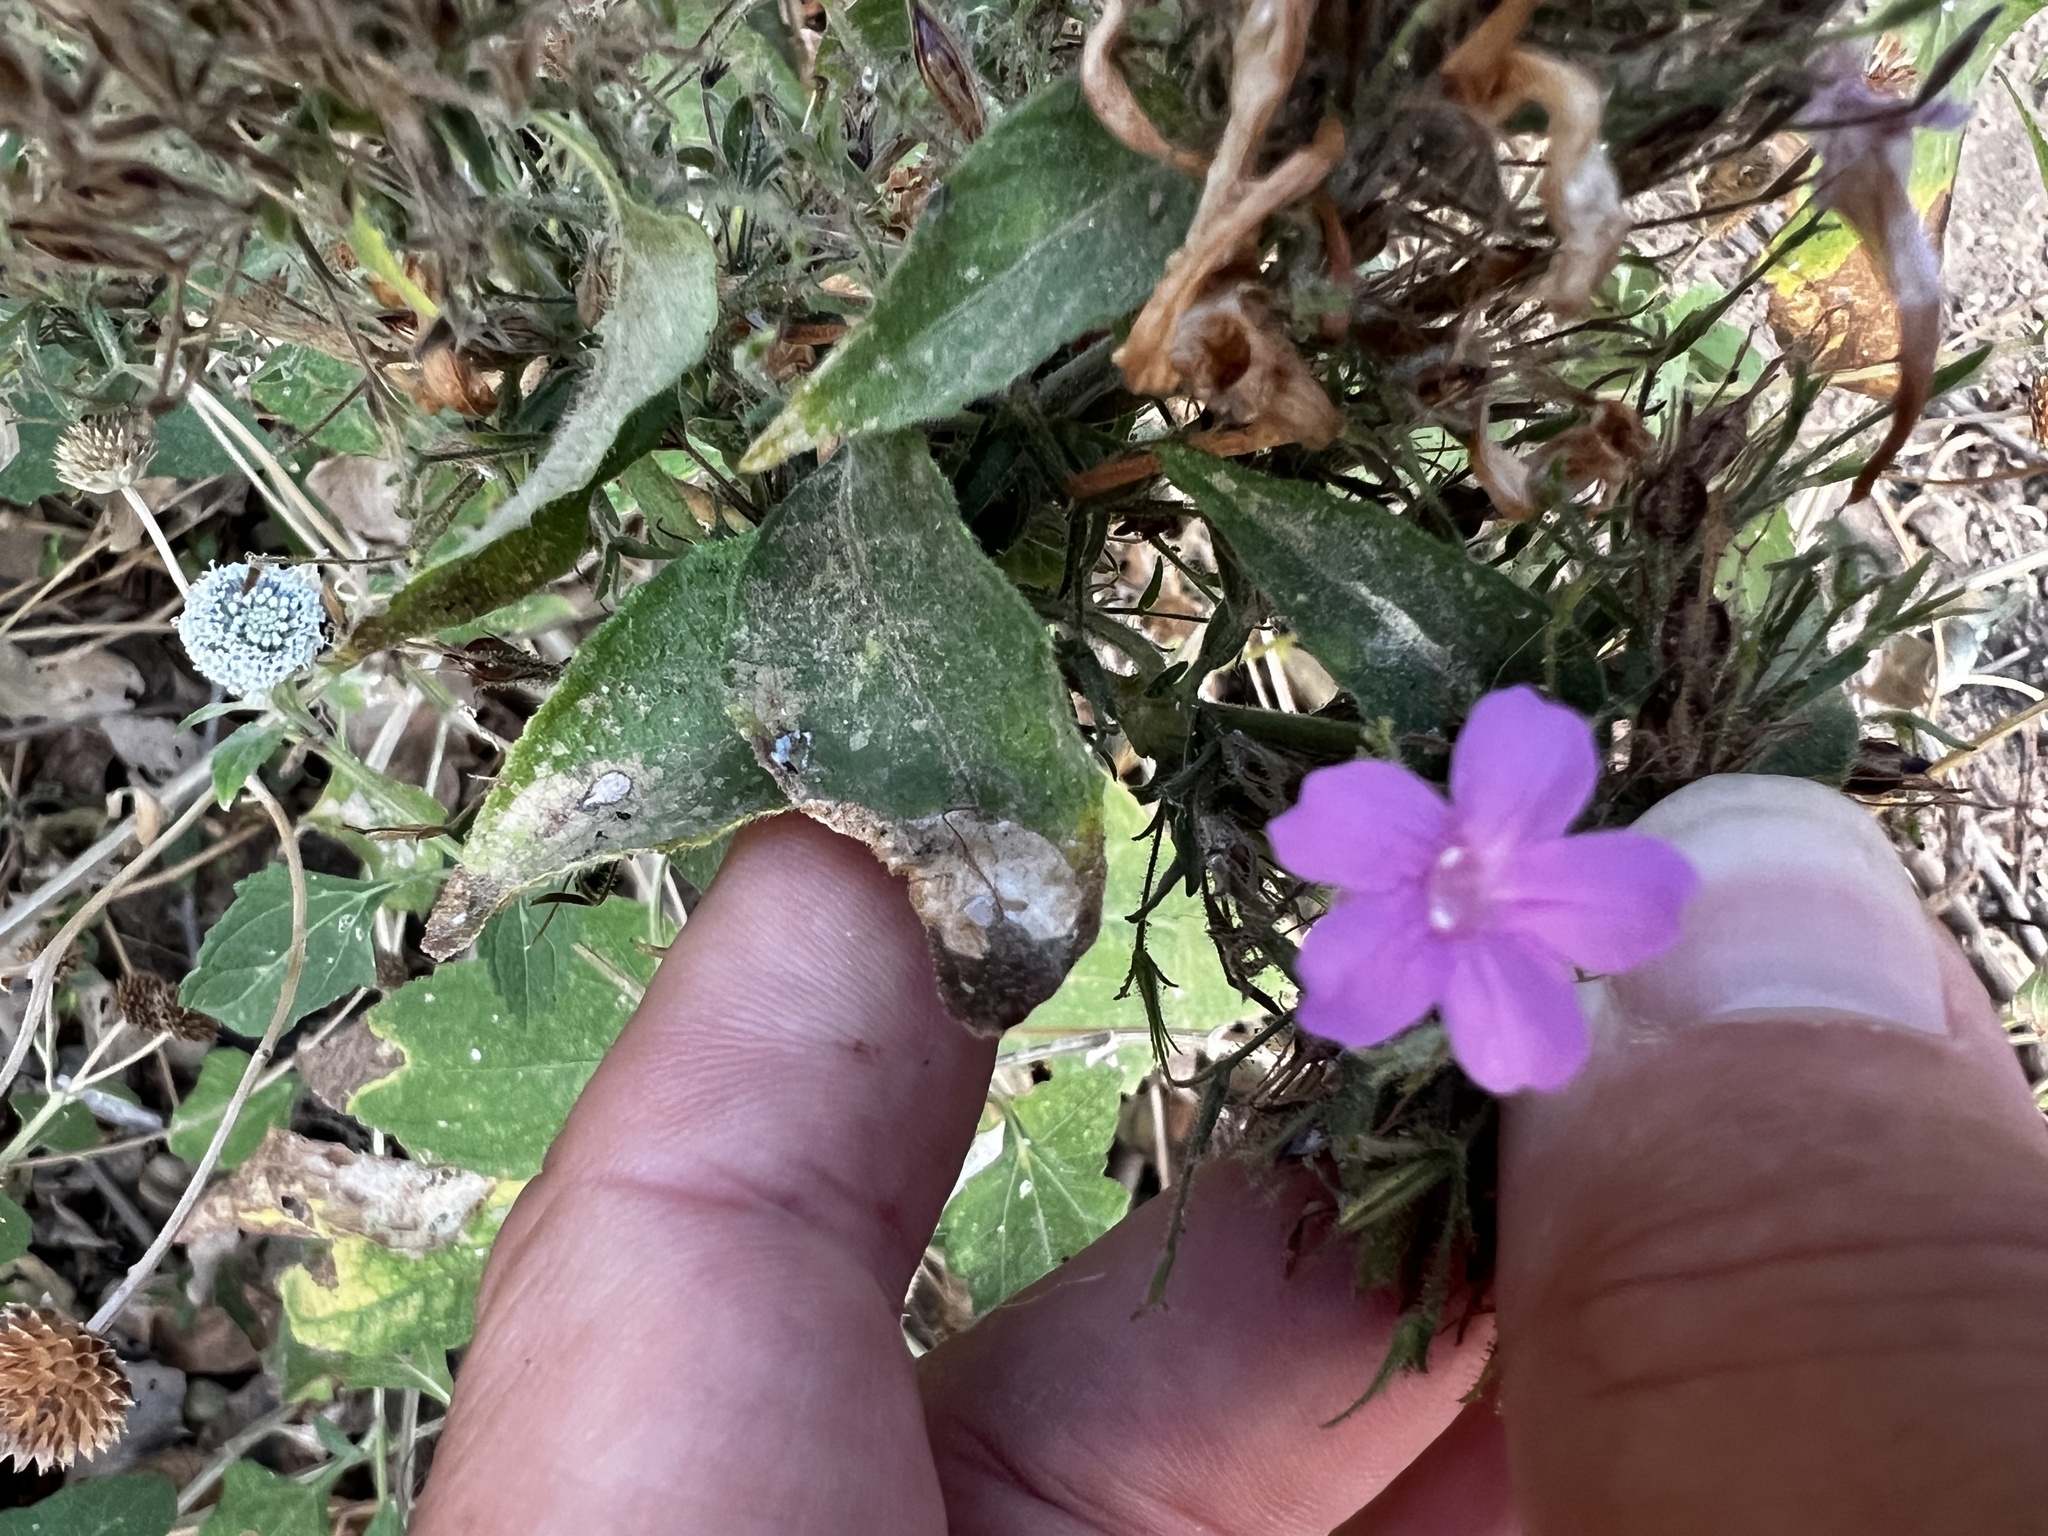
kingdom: Plantae
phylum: Tracheophyta
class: Magnoliopsida
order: Lamiales
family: Acanthaceae
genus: Ruellia
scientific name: Ruellia inundata
